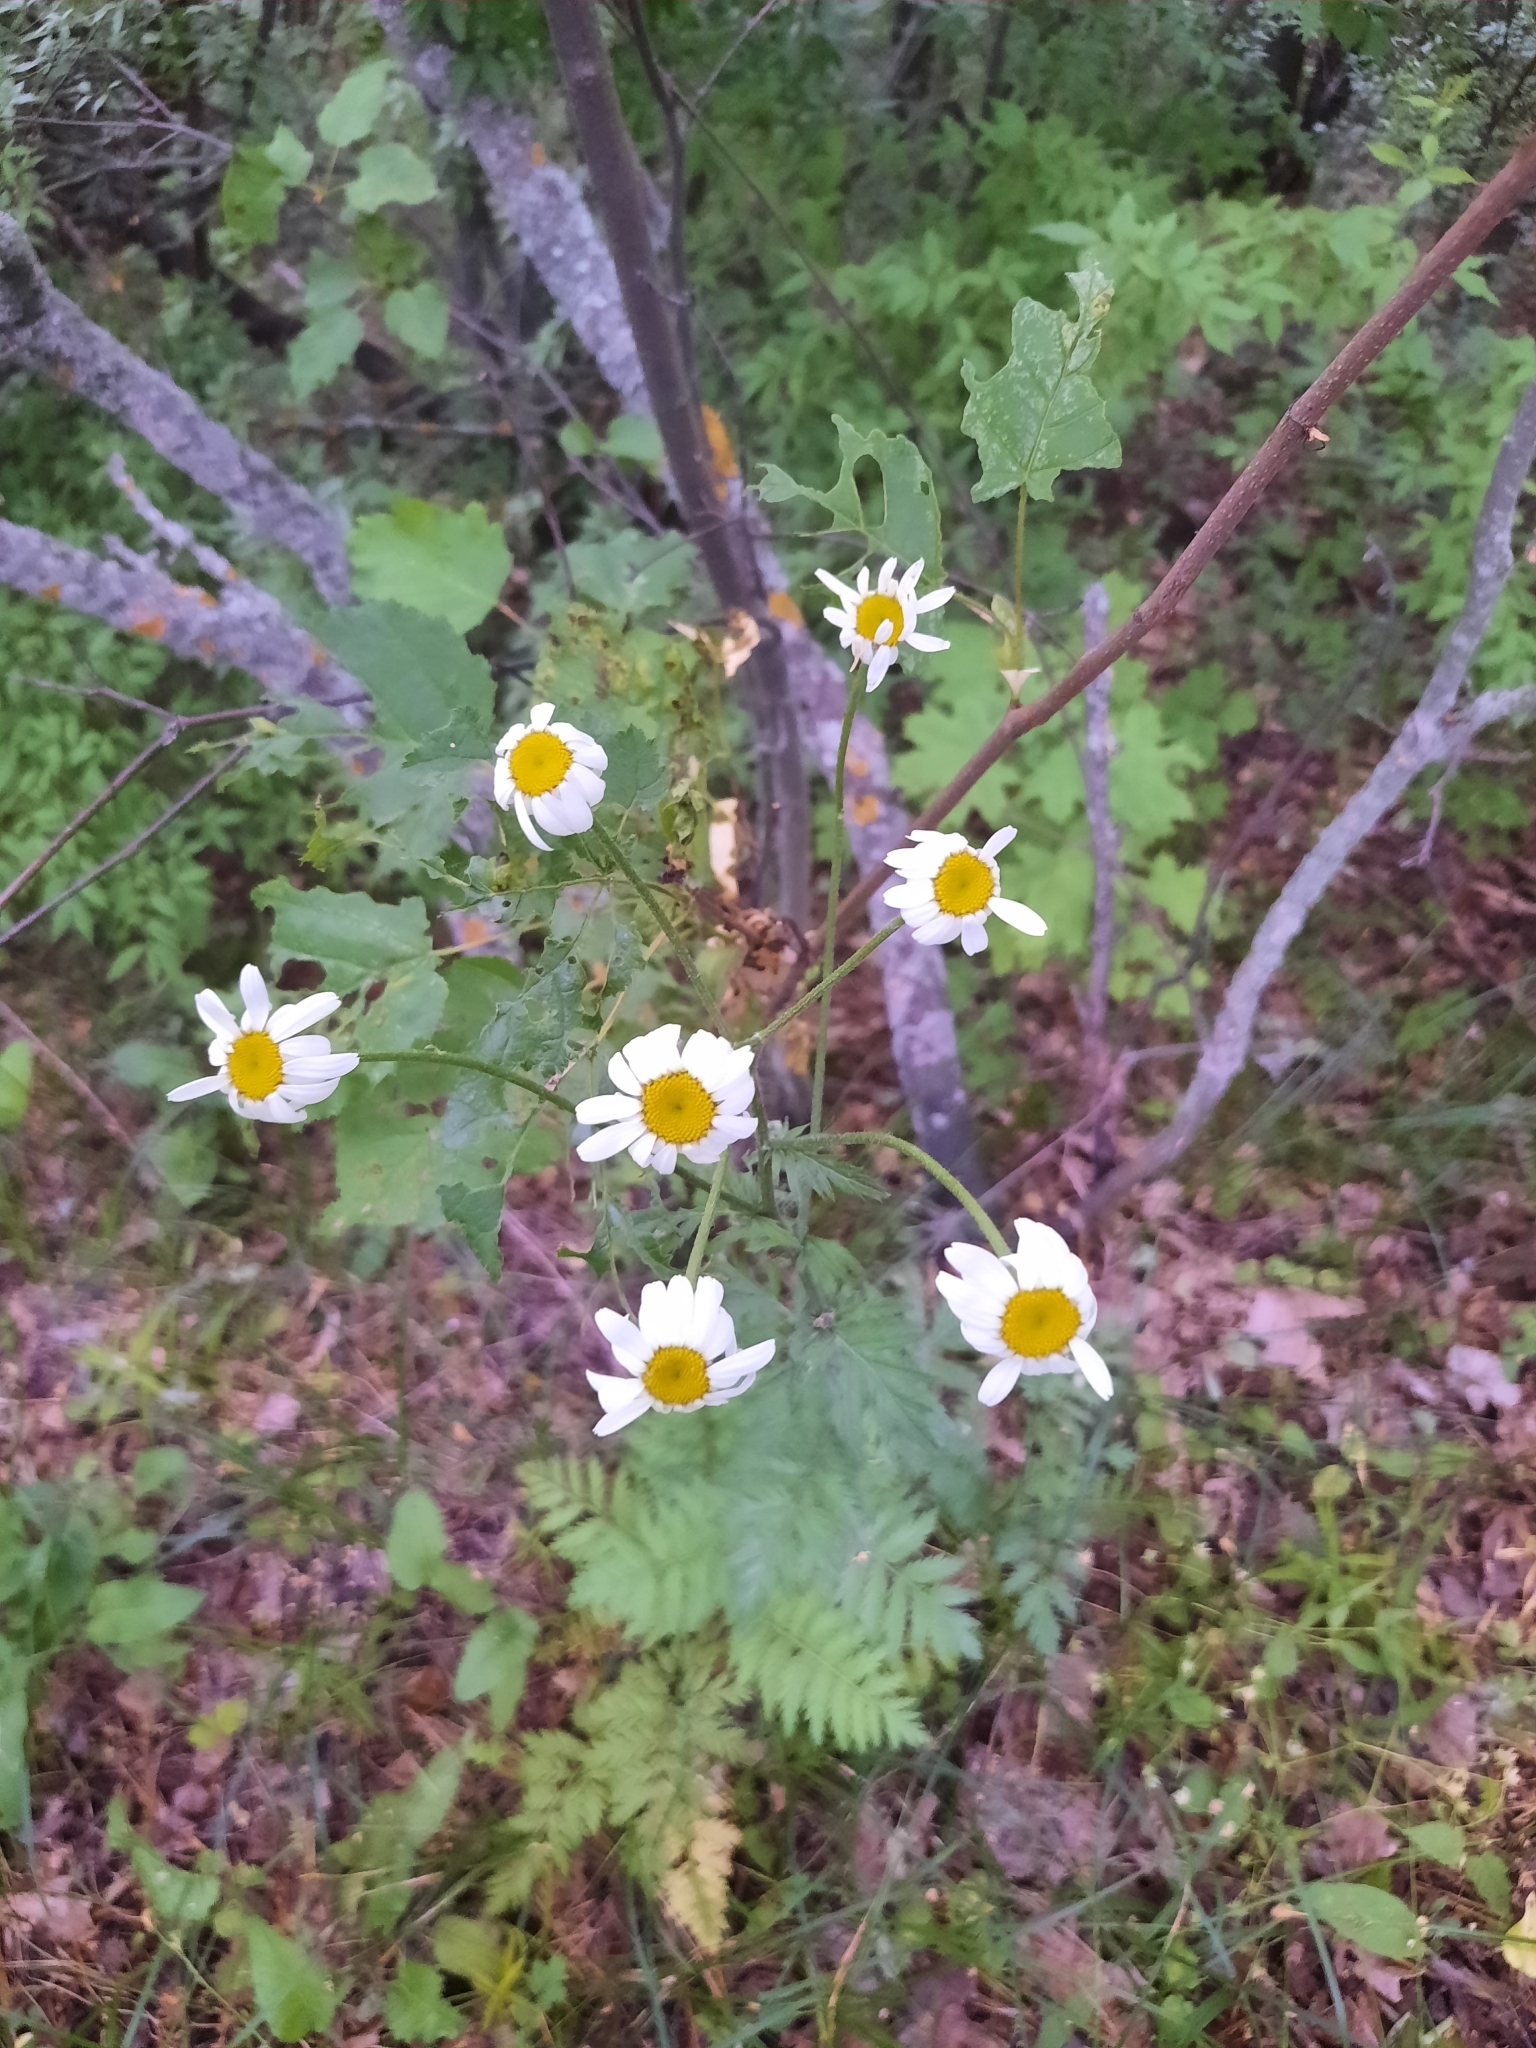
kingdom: Plantae
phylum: Tracheophyta
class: Magnoliopsida
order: Asterales
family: Asteraceae
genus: Tanacetum
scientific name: Tanacetum corymbosum
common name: Scentless feverfew
